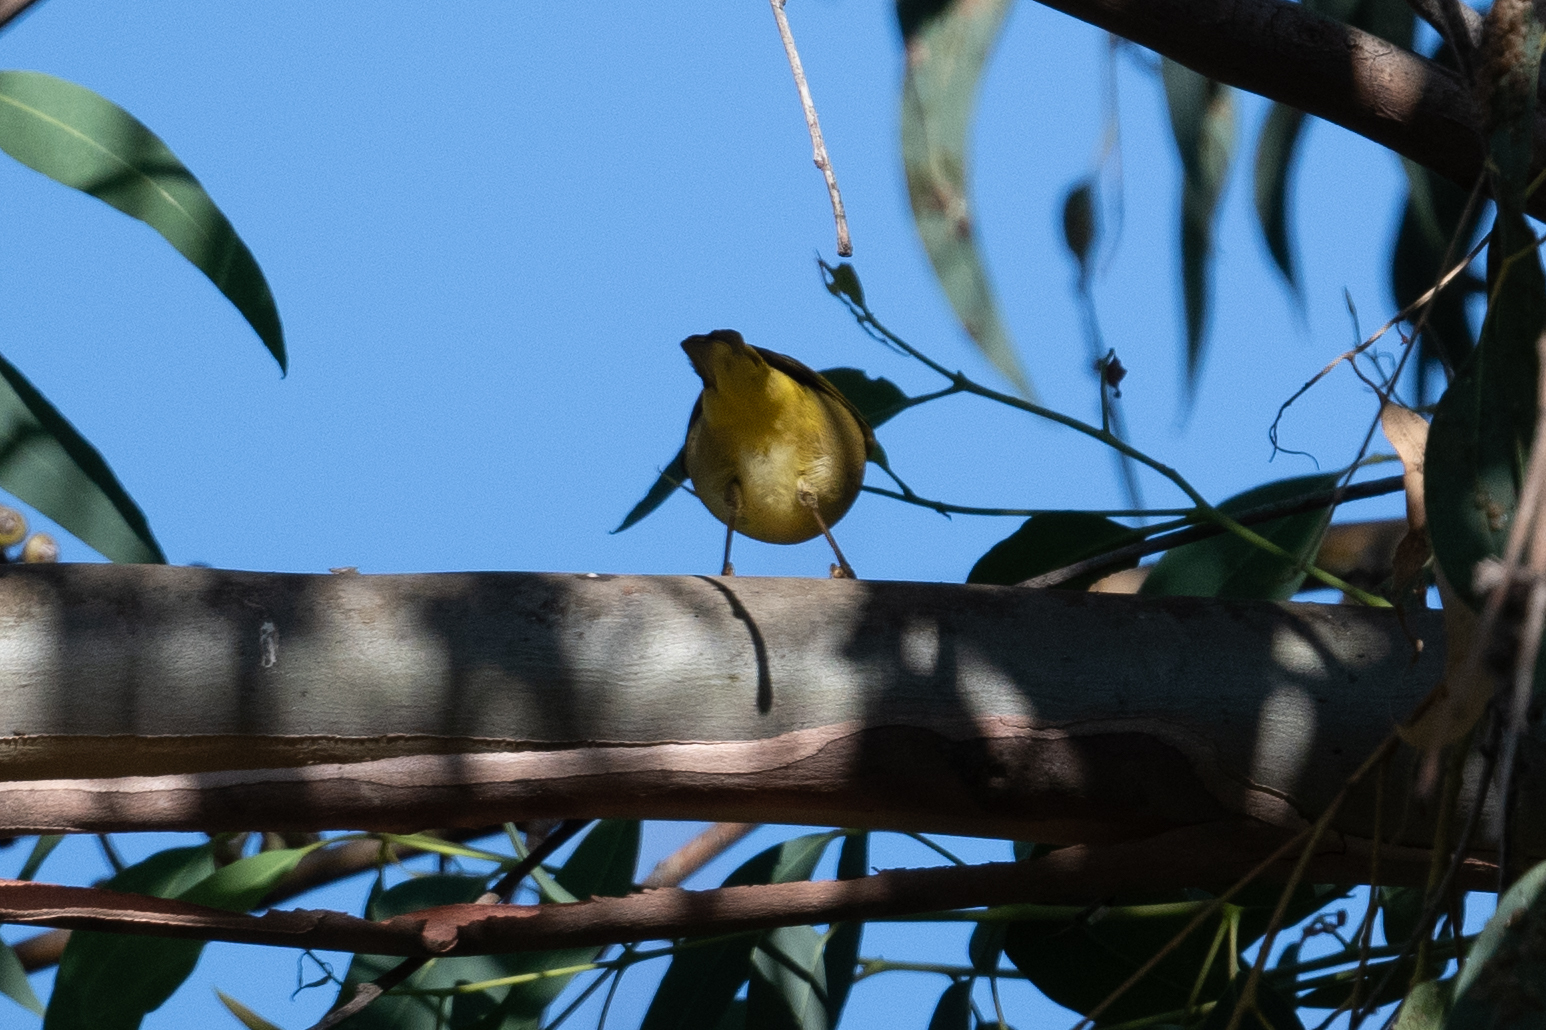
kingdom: Animalia
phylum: Chordata
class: Aves
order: Passeriformes
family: Parulidae
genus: Setophaga
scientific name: Setophaga petechia
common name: Yellow warbler
